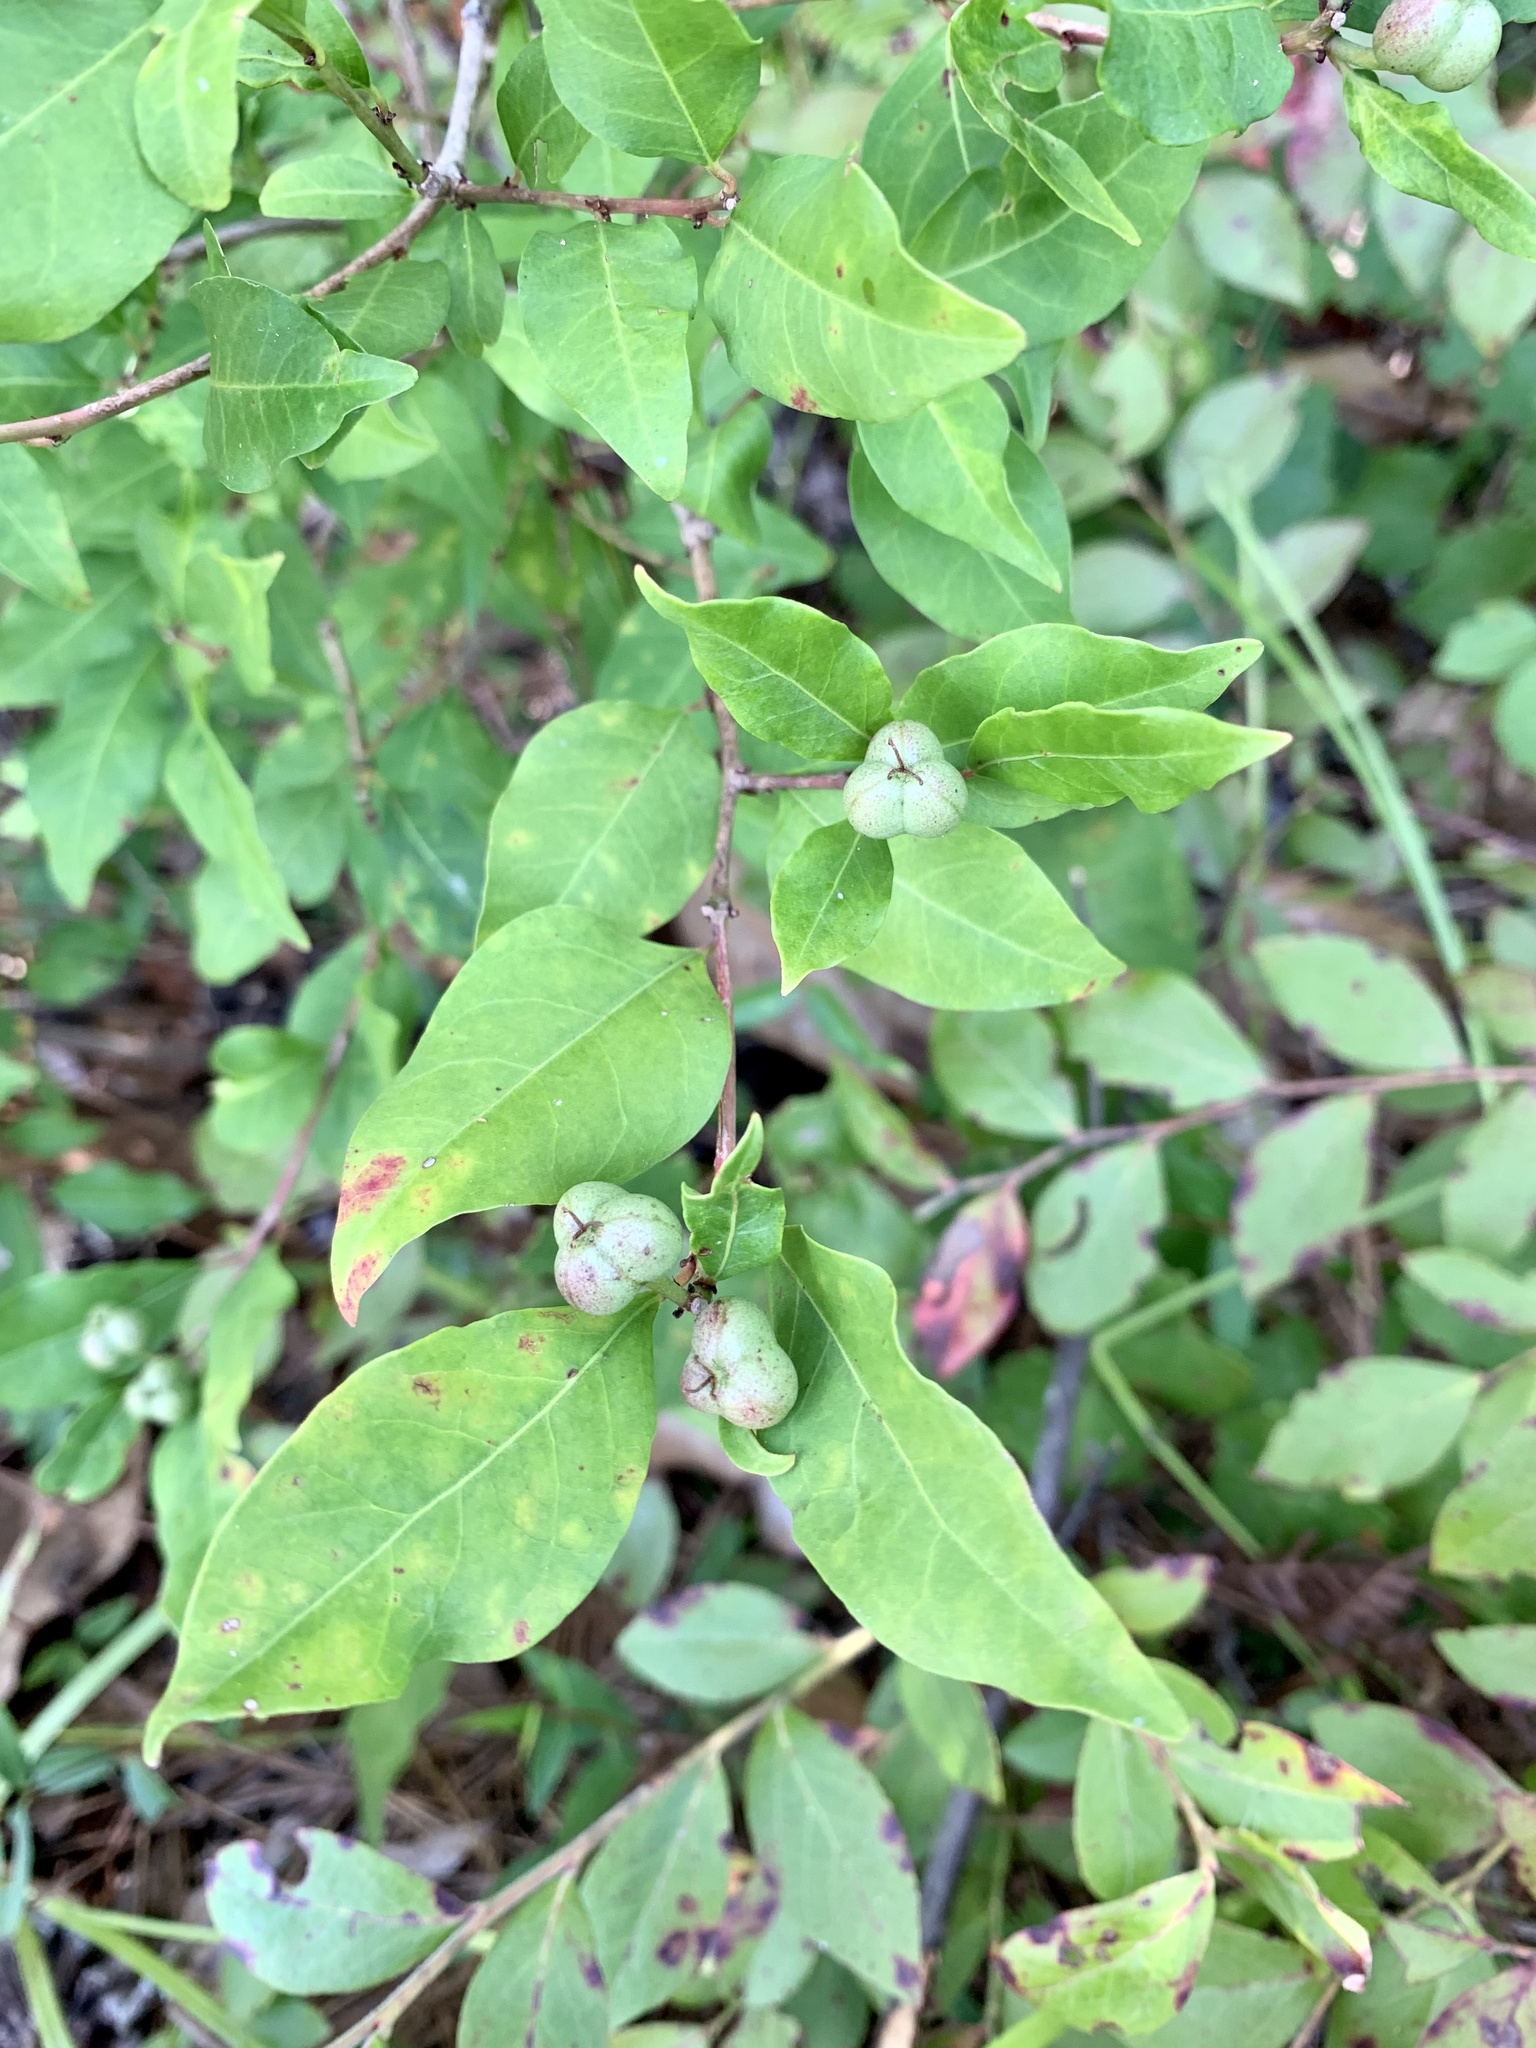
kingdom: Plantae
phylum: Tracheophyta
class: Magnoliopsida
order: Malpighiales
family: Euphorbiaceae
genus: Ditrysinia
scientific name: Ditrysinia fruticosa
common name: Gulf sebastian-bush
